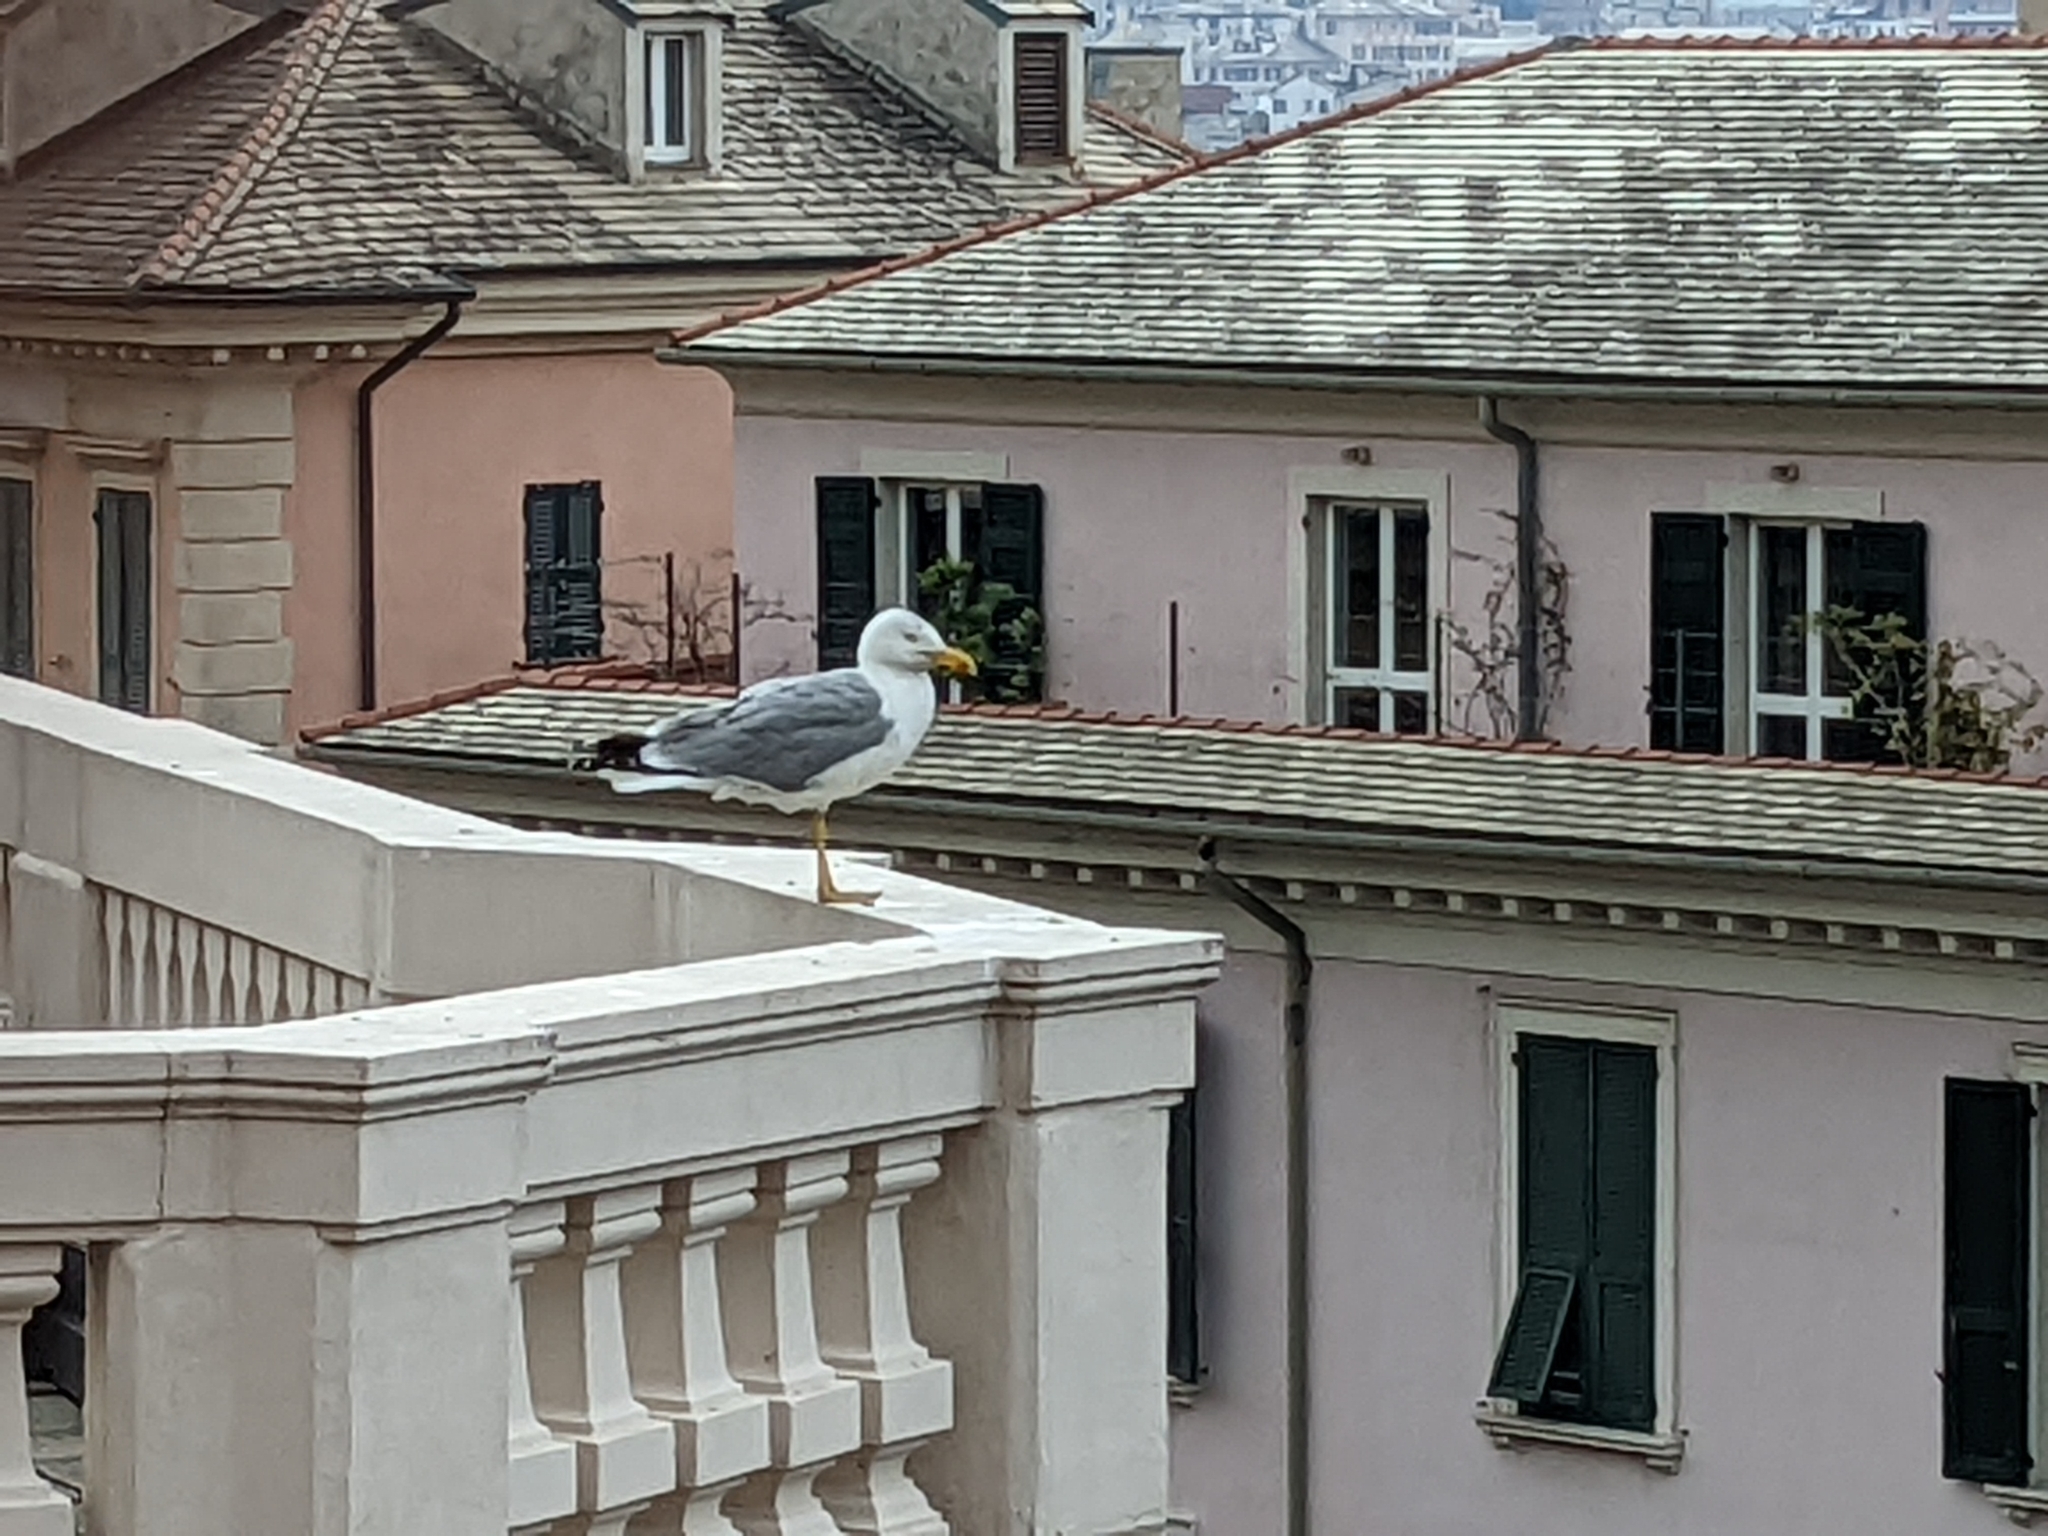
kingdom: Animalia
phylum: Chordata
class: Aves
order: Charadriiformes
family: Laridae
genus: Larus
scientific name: Larus michahellis
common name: Yellow-legged gull
